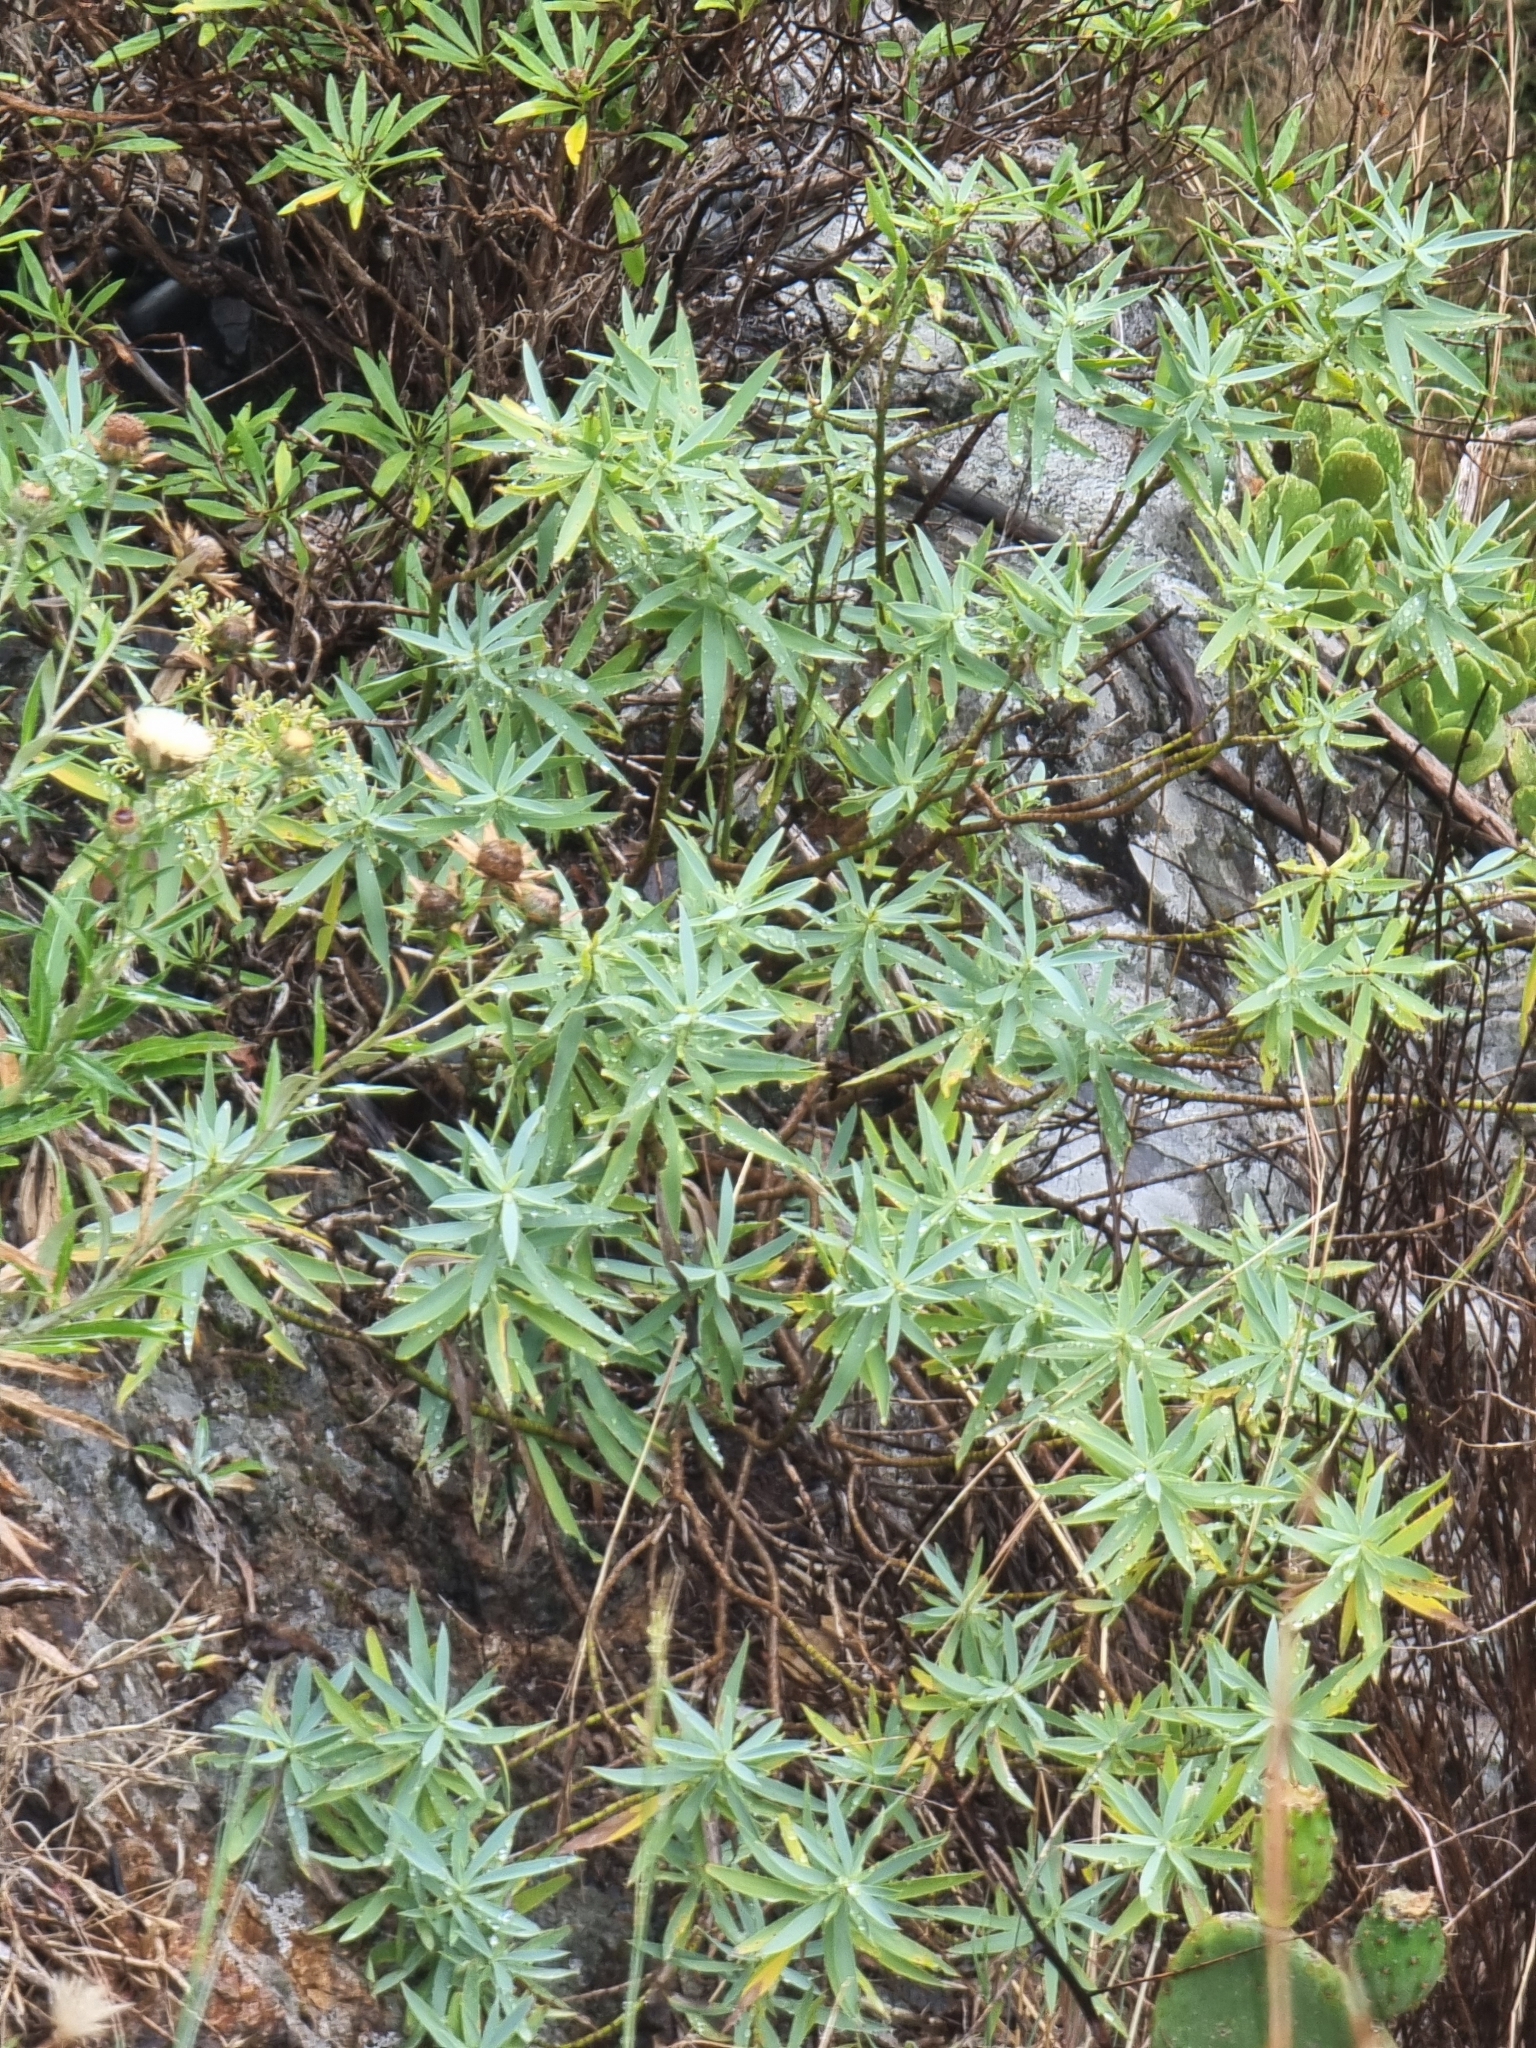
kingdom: Plantae
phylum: Tracheophyta
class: Magnoliopsida
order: Apiales
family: Apiaceae
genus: Bupleurum
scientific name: Bupleurum salicifolium
